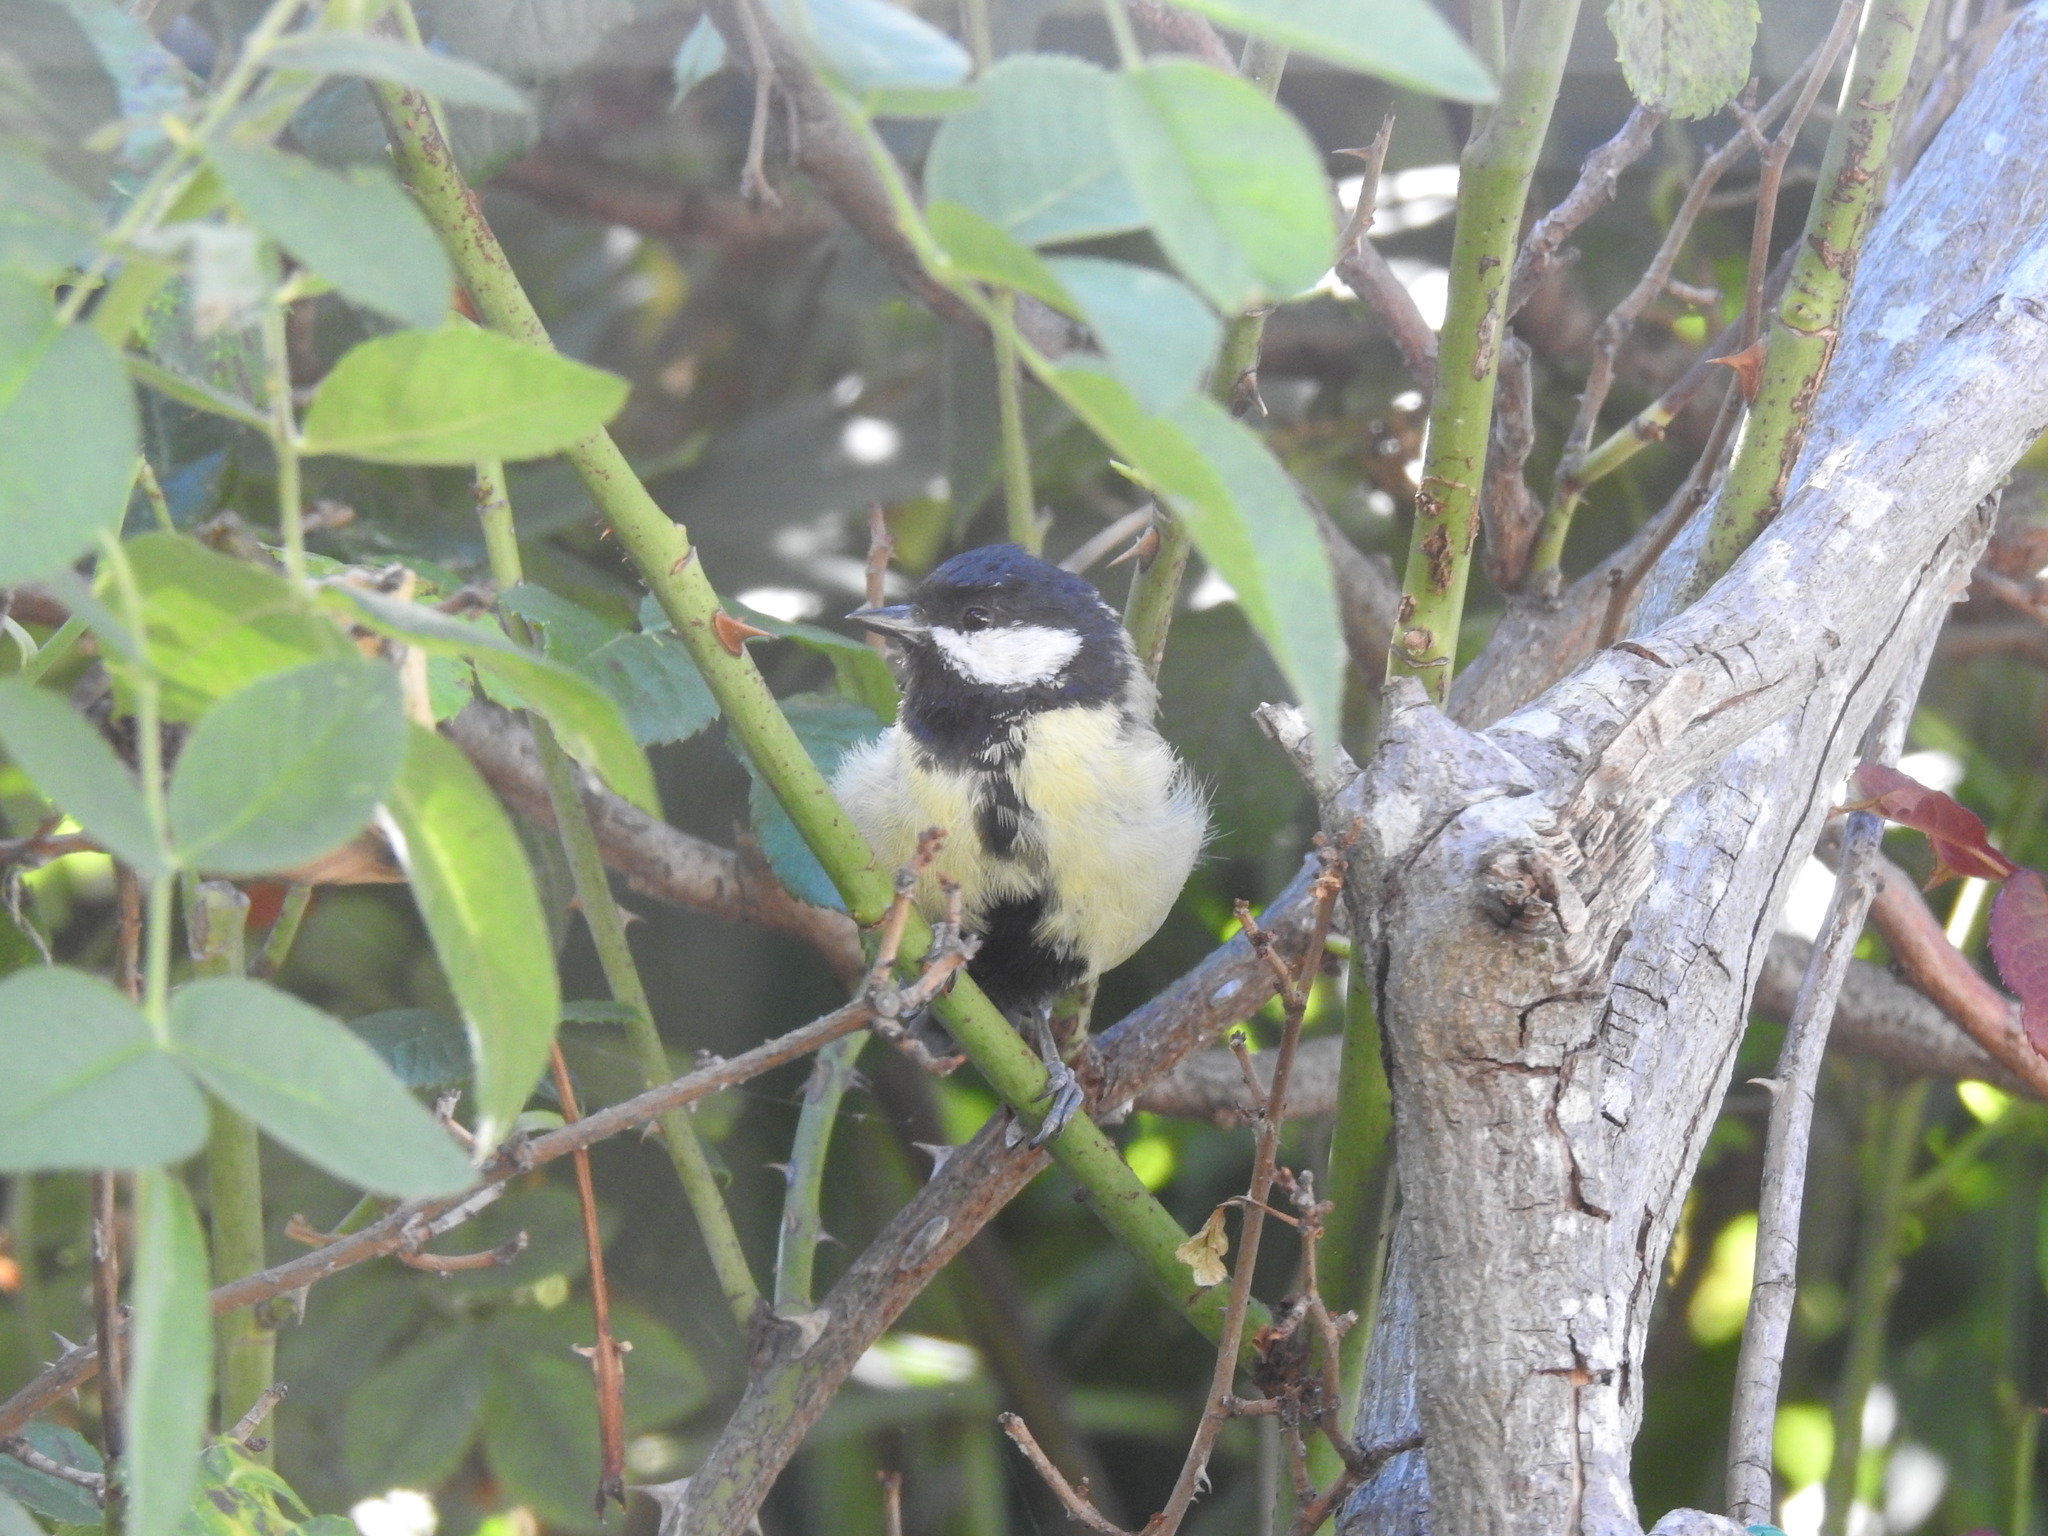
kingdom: Animalia
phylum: Chordata
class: Aves
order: Passeriformes
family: Paridae
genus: Parus
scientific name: Parus major
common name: Great tit
